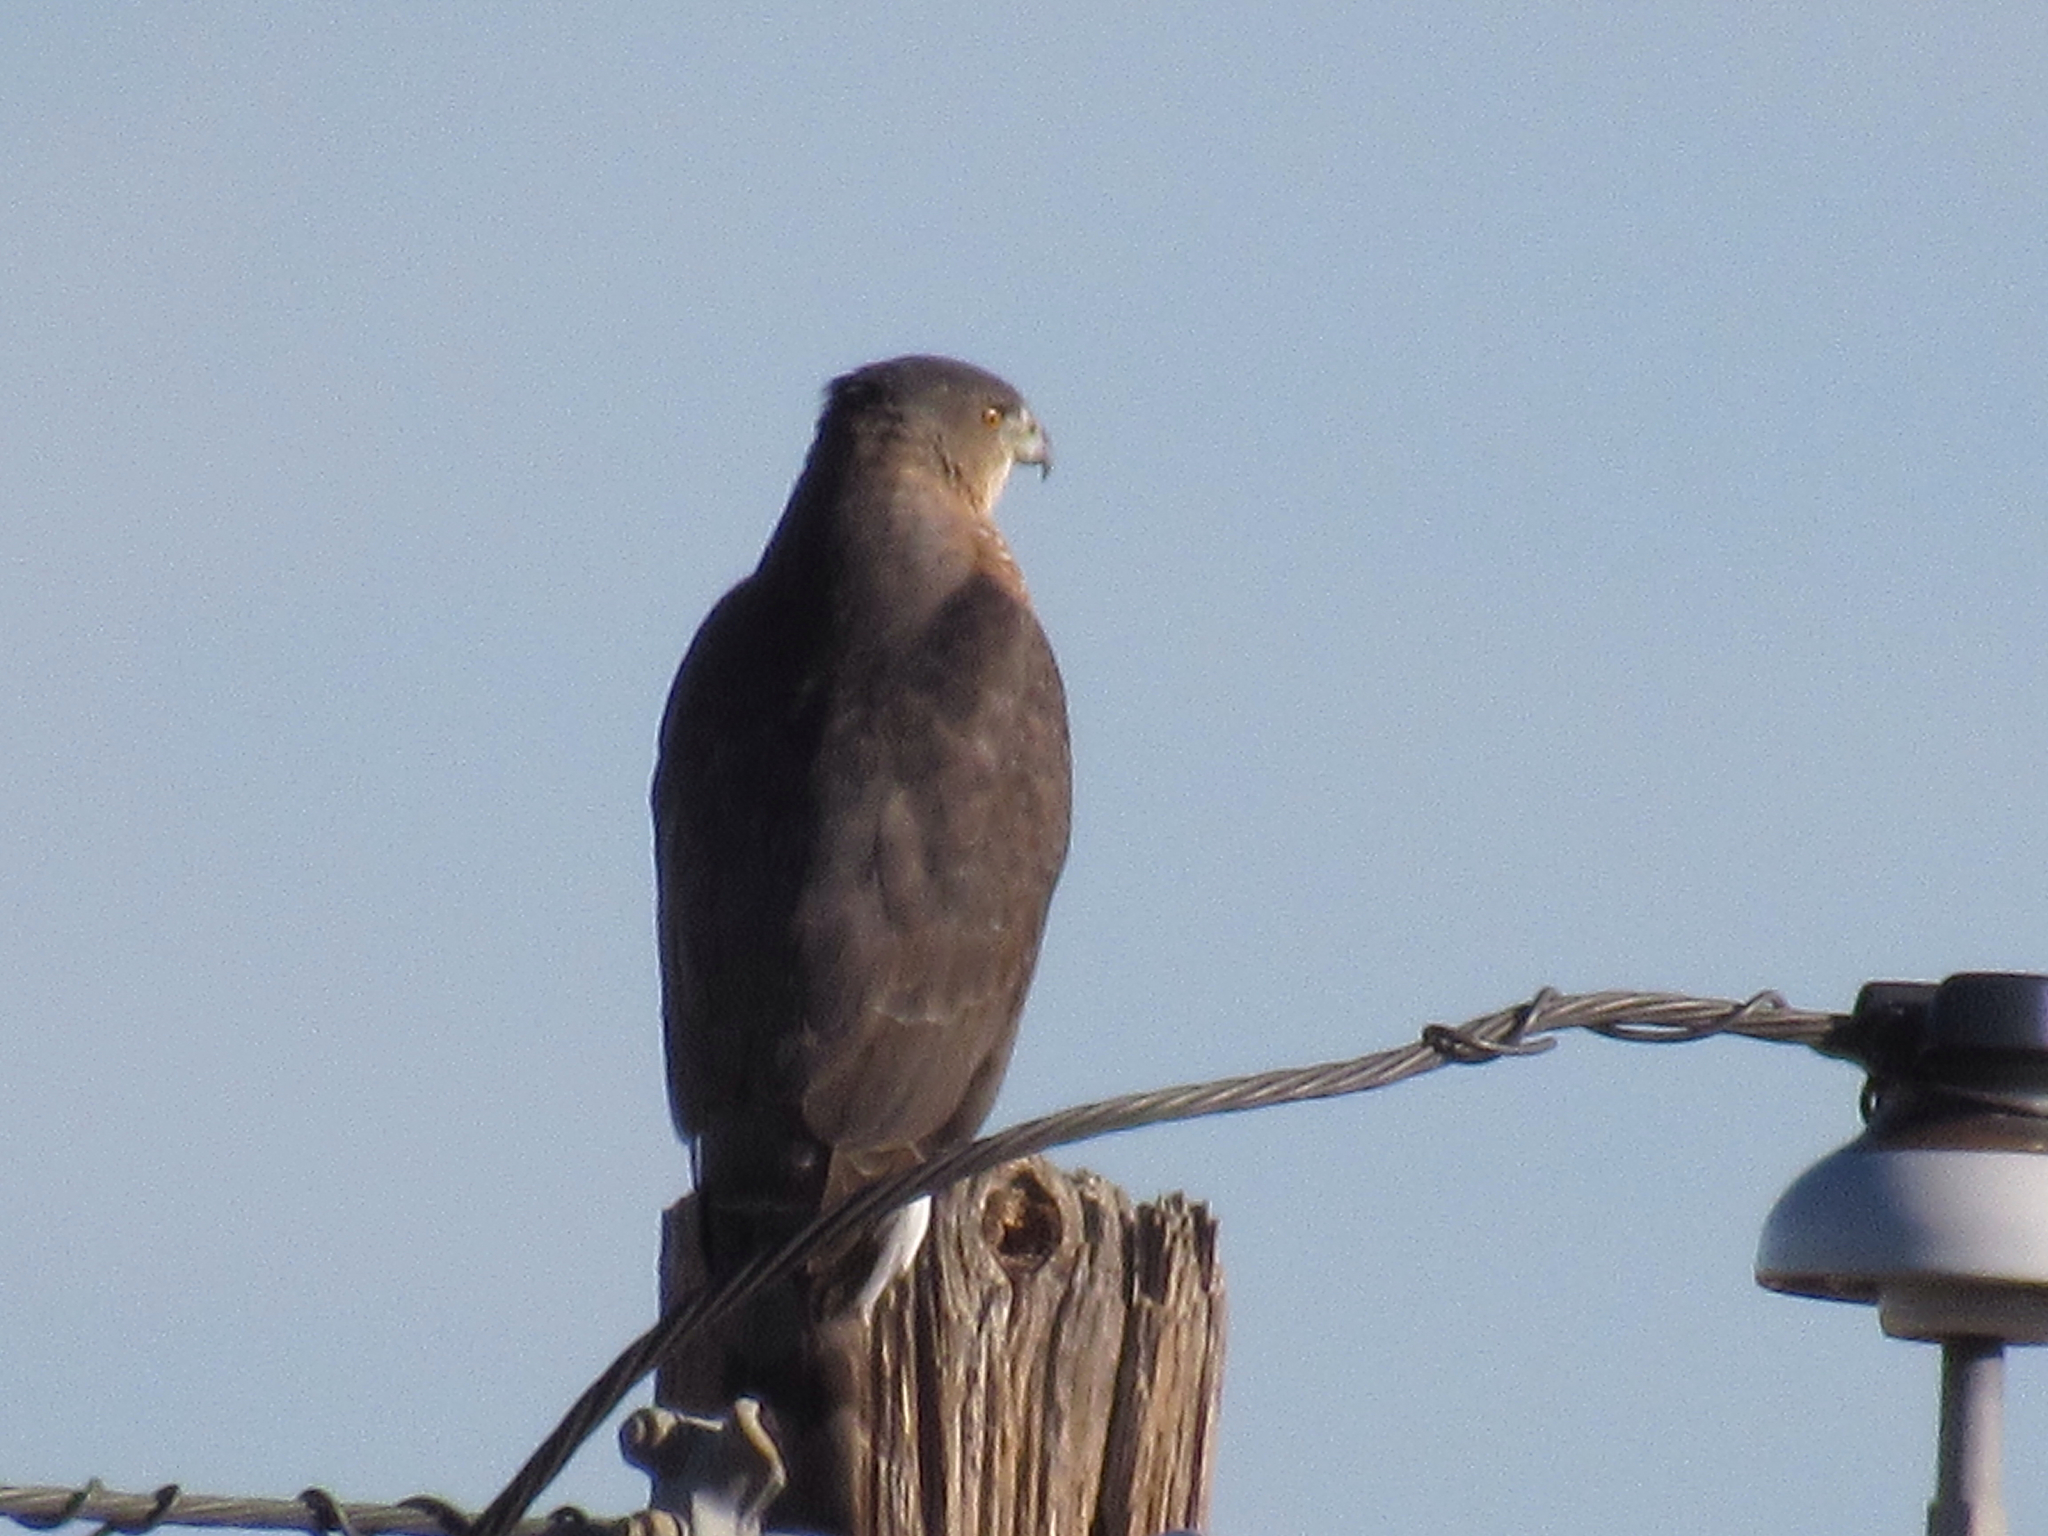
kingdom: Animalia
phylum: Chordata
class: Aves
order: Accipitriformes
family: Accipitridae
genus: Accipiter
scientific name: Accipiter cooperii
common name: Cooper's hawk
